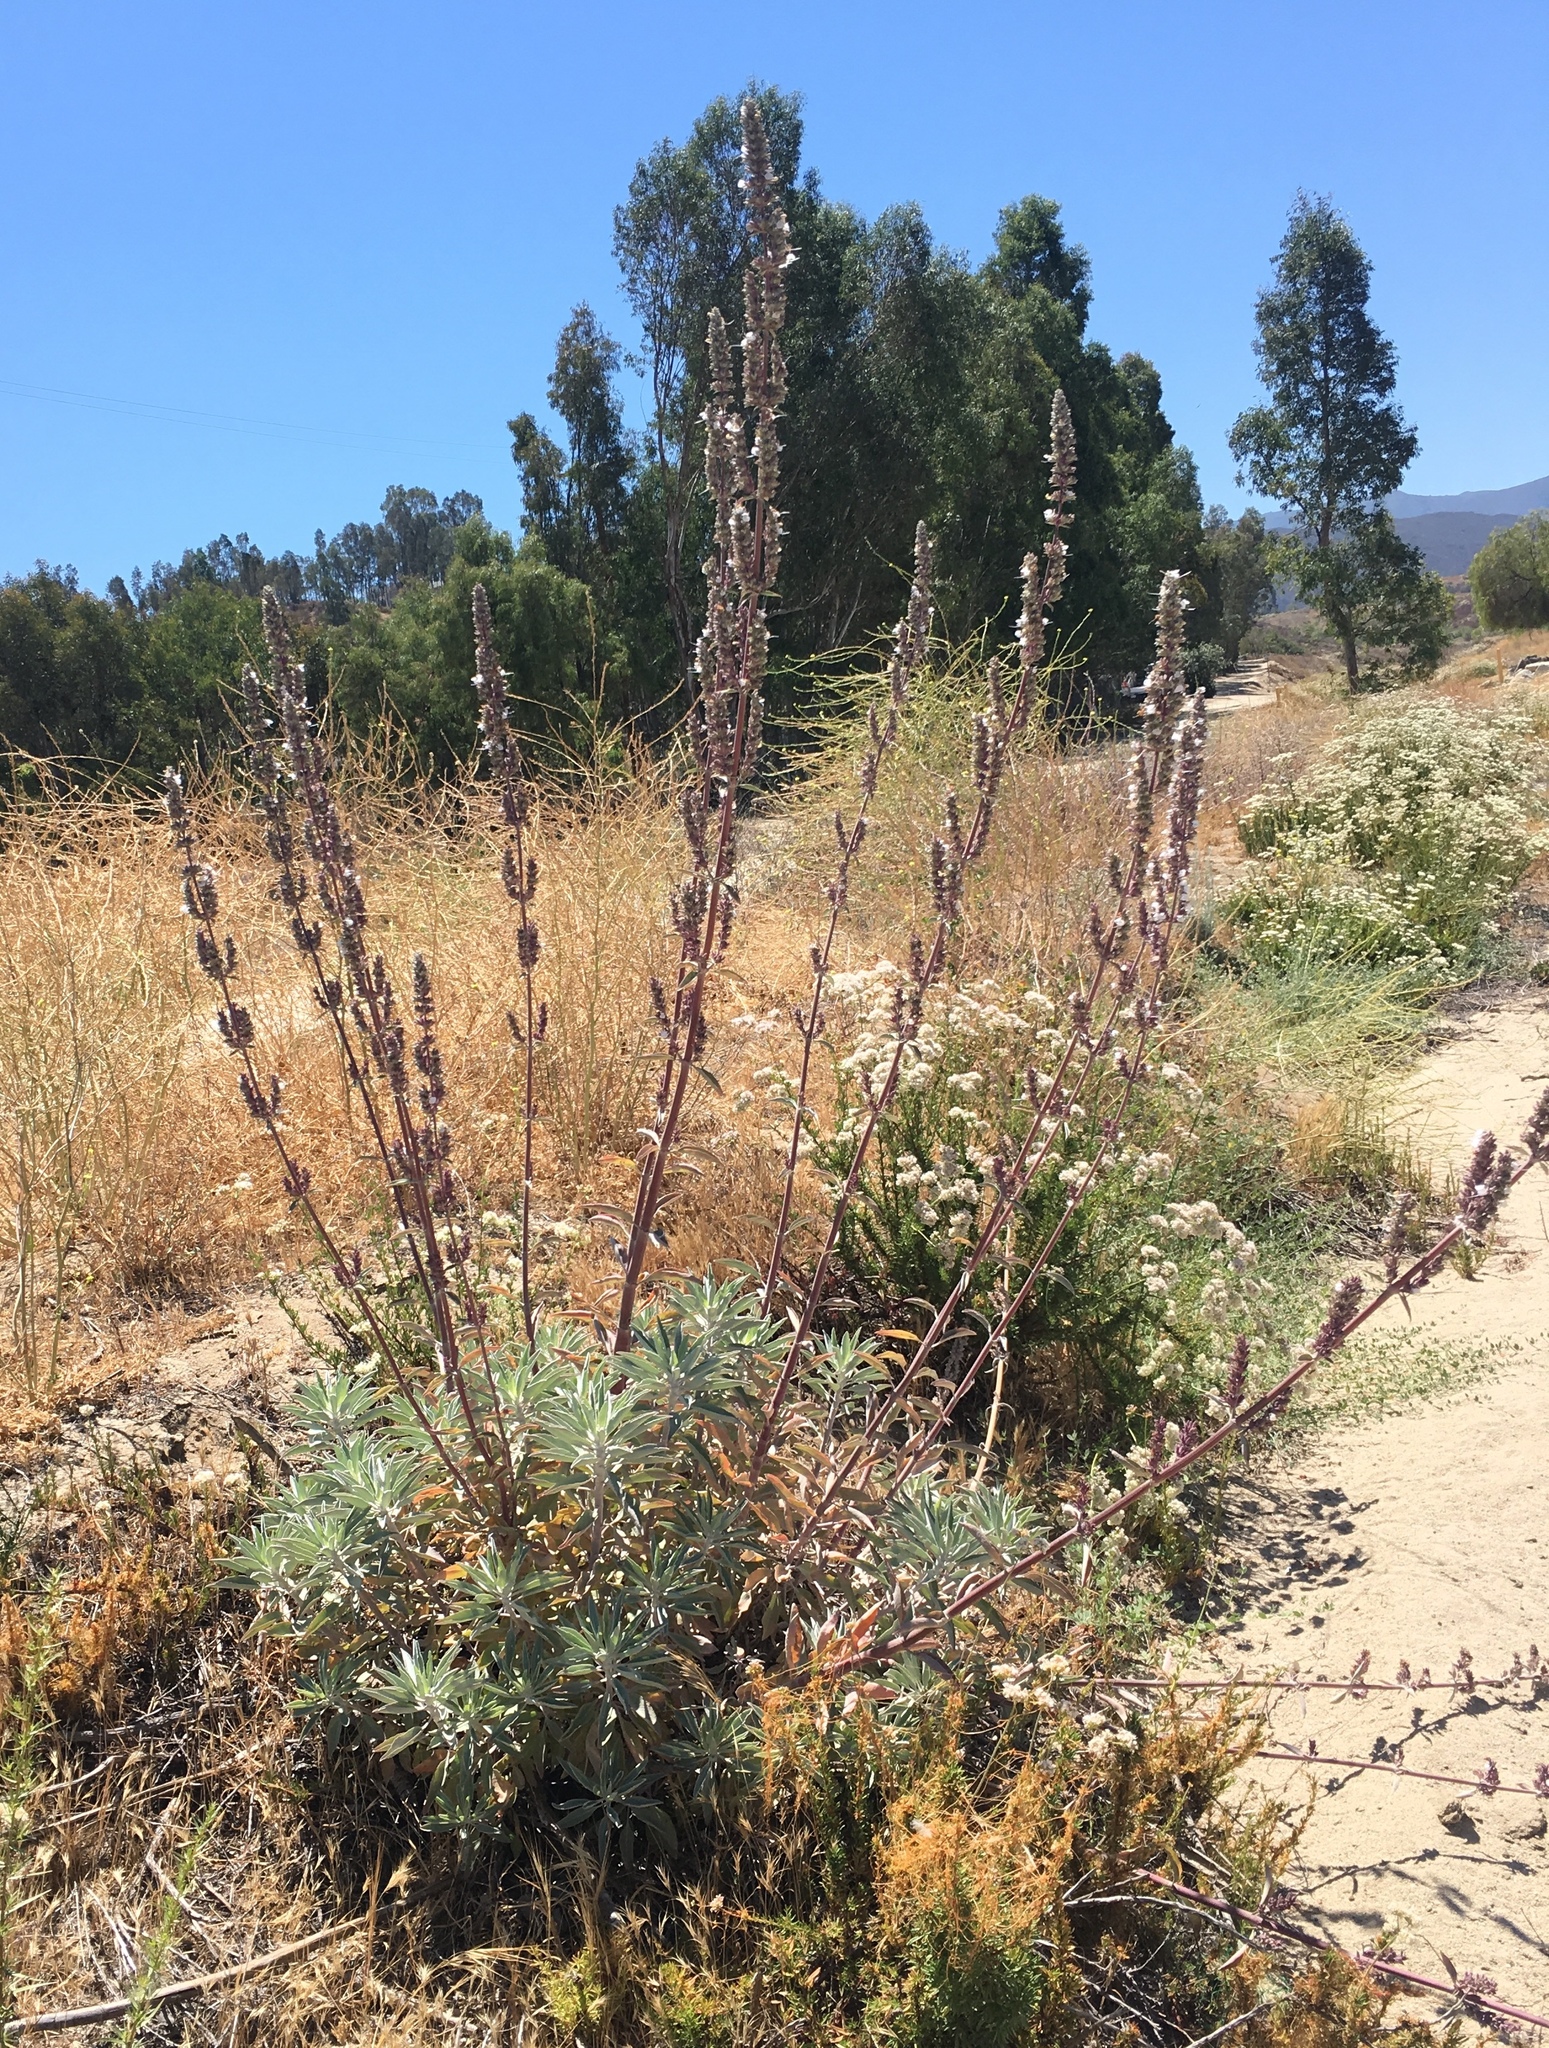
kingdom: Plantae
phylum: Tracheophyta
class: Magnoliopsida
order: Lamiales
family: Lamiaceae
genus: Salvia
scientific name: Salvia apiana
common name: White sage
